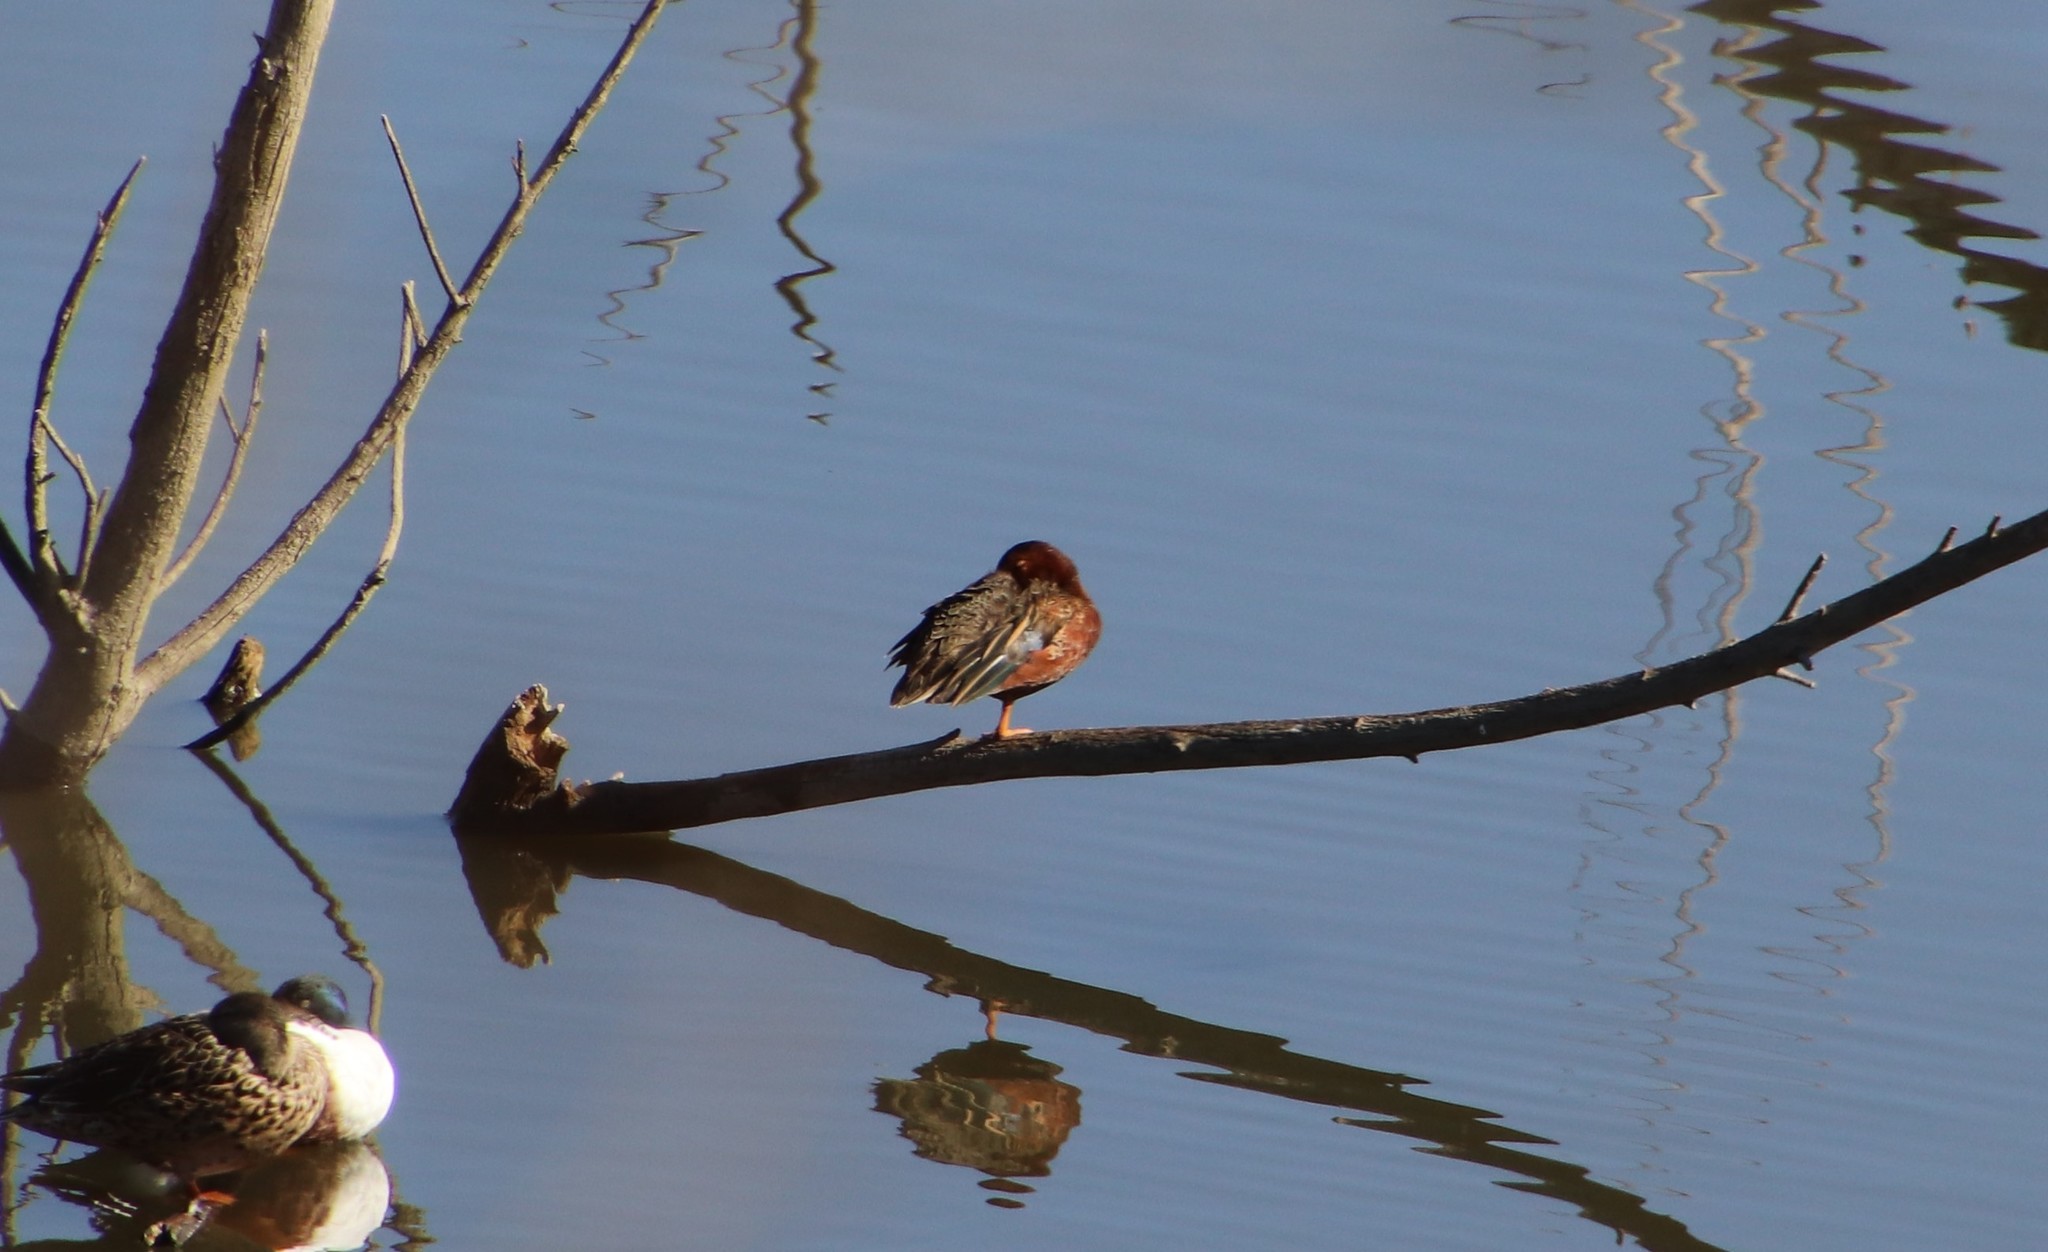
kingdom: Animalia
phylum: Chordata
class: Aves
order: Anseriformes
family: Anatidae
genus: Spatula
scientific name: Spatula cyanoptera
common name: Cinnamon teal
